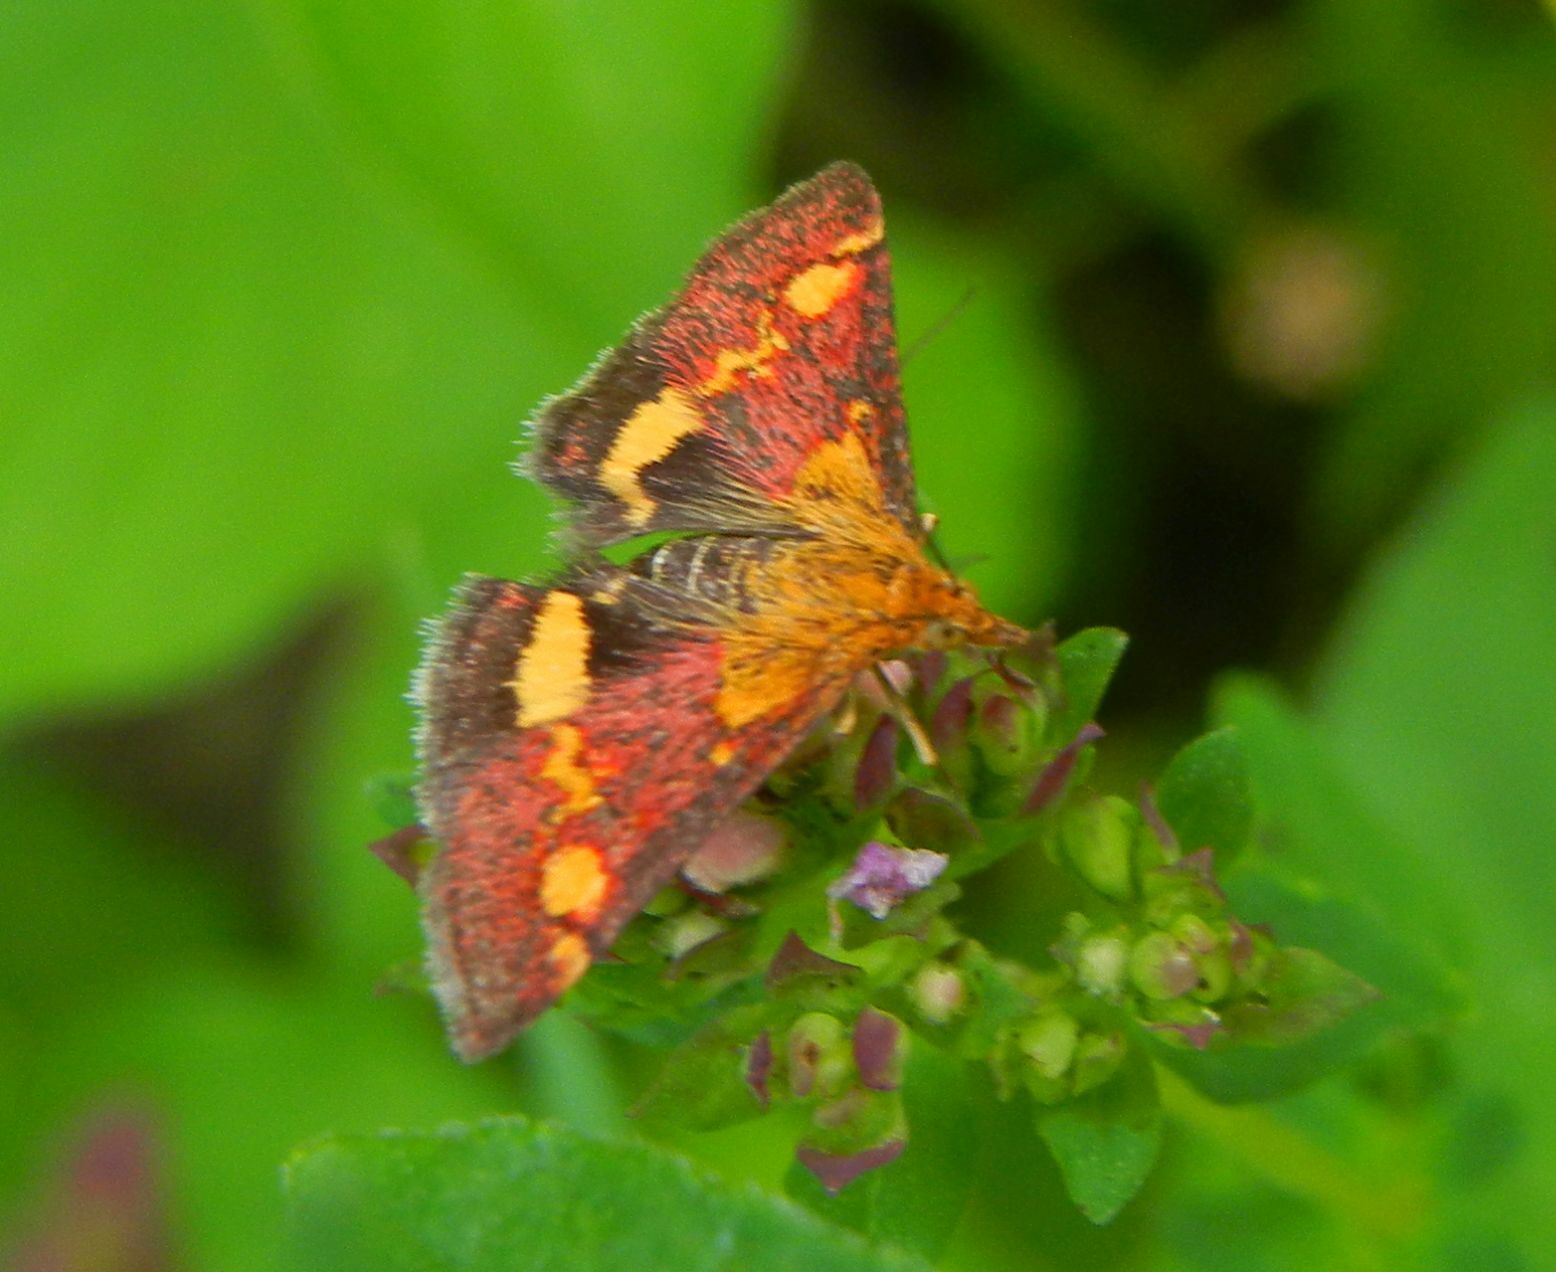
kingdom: Animalia
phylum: Arthropoda
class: Insecta
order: Lepidoptera
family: Crambidae
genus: Pyrausta
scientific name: Pyrausta aurata
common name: Small purple & gold
